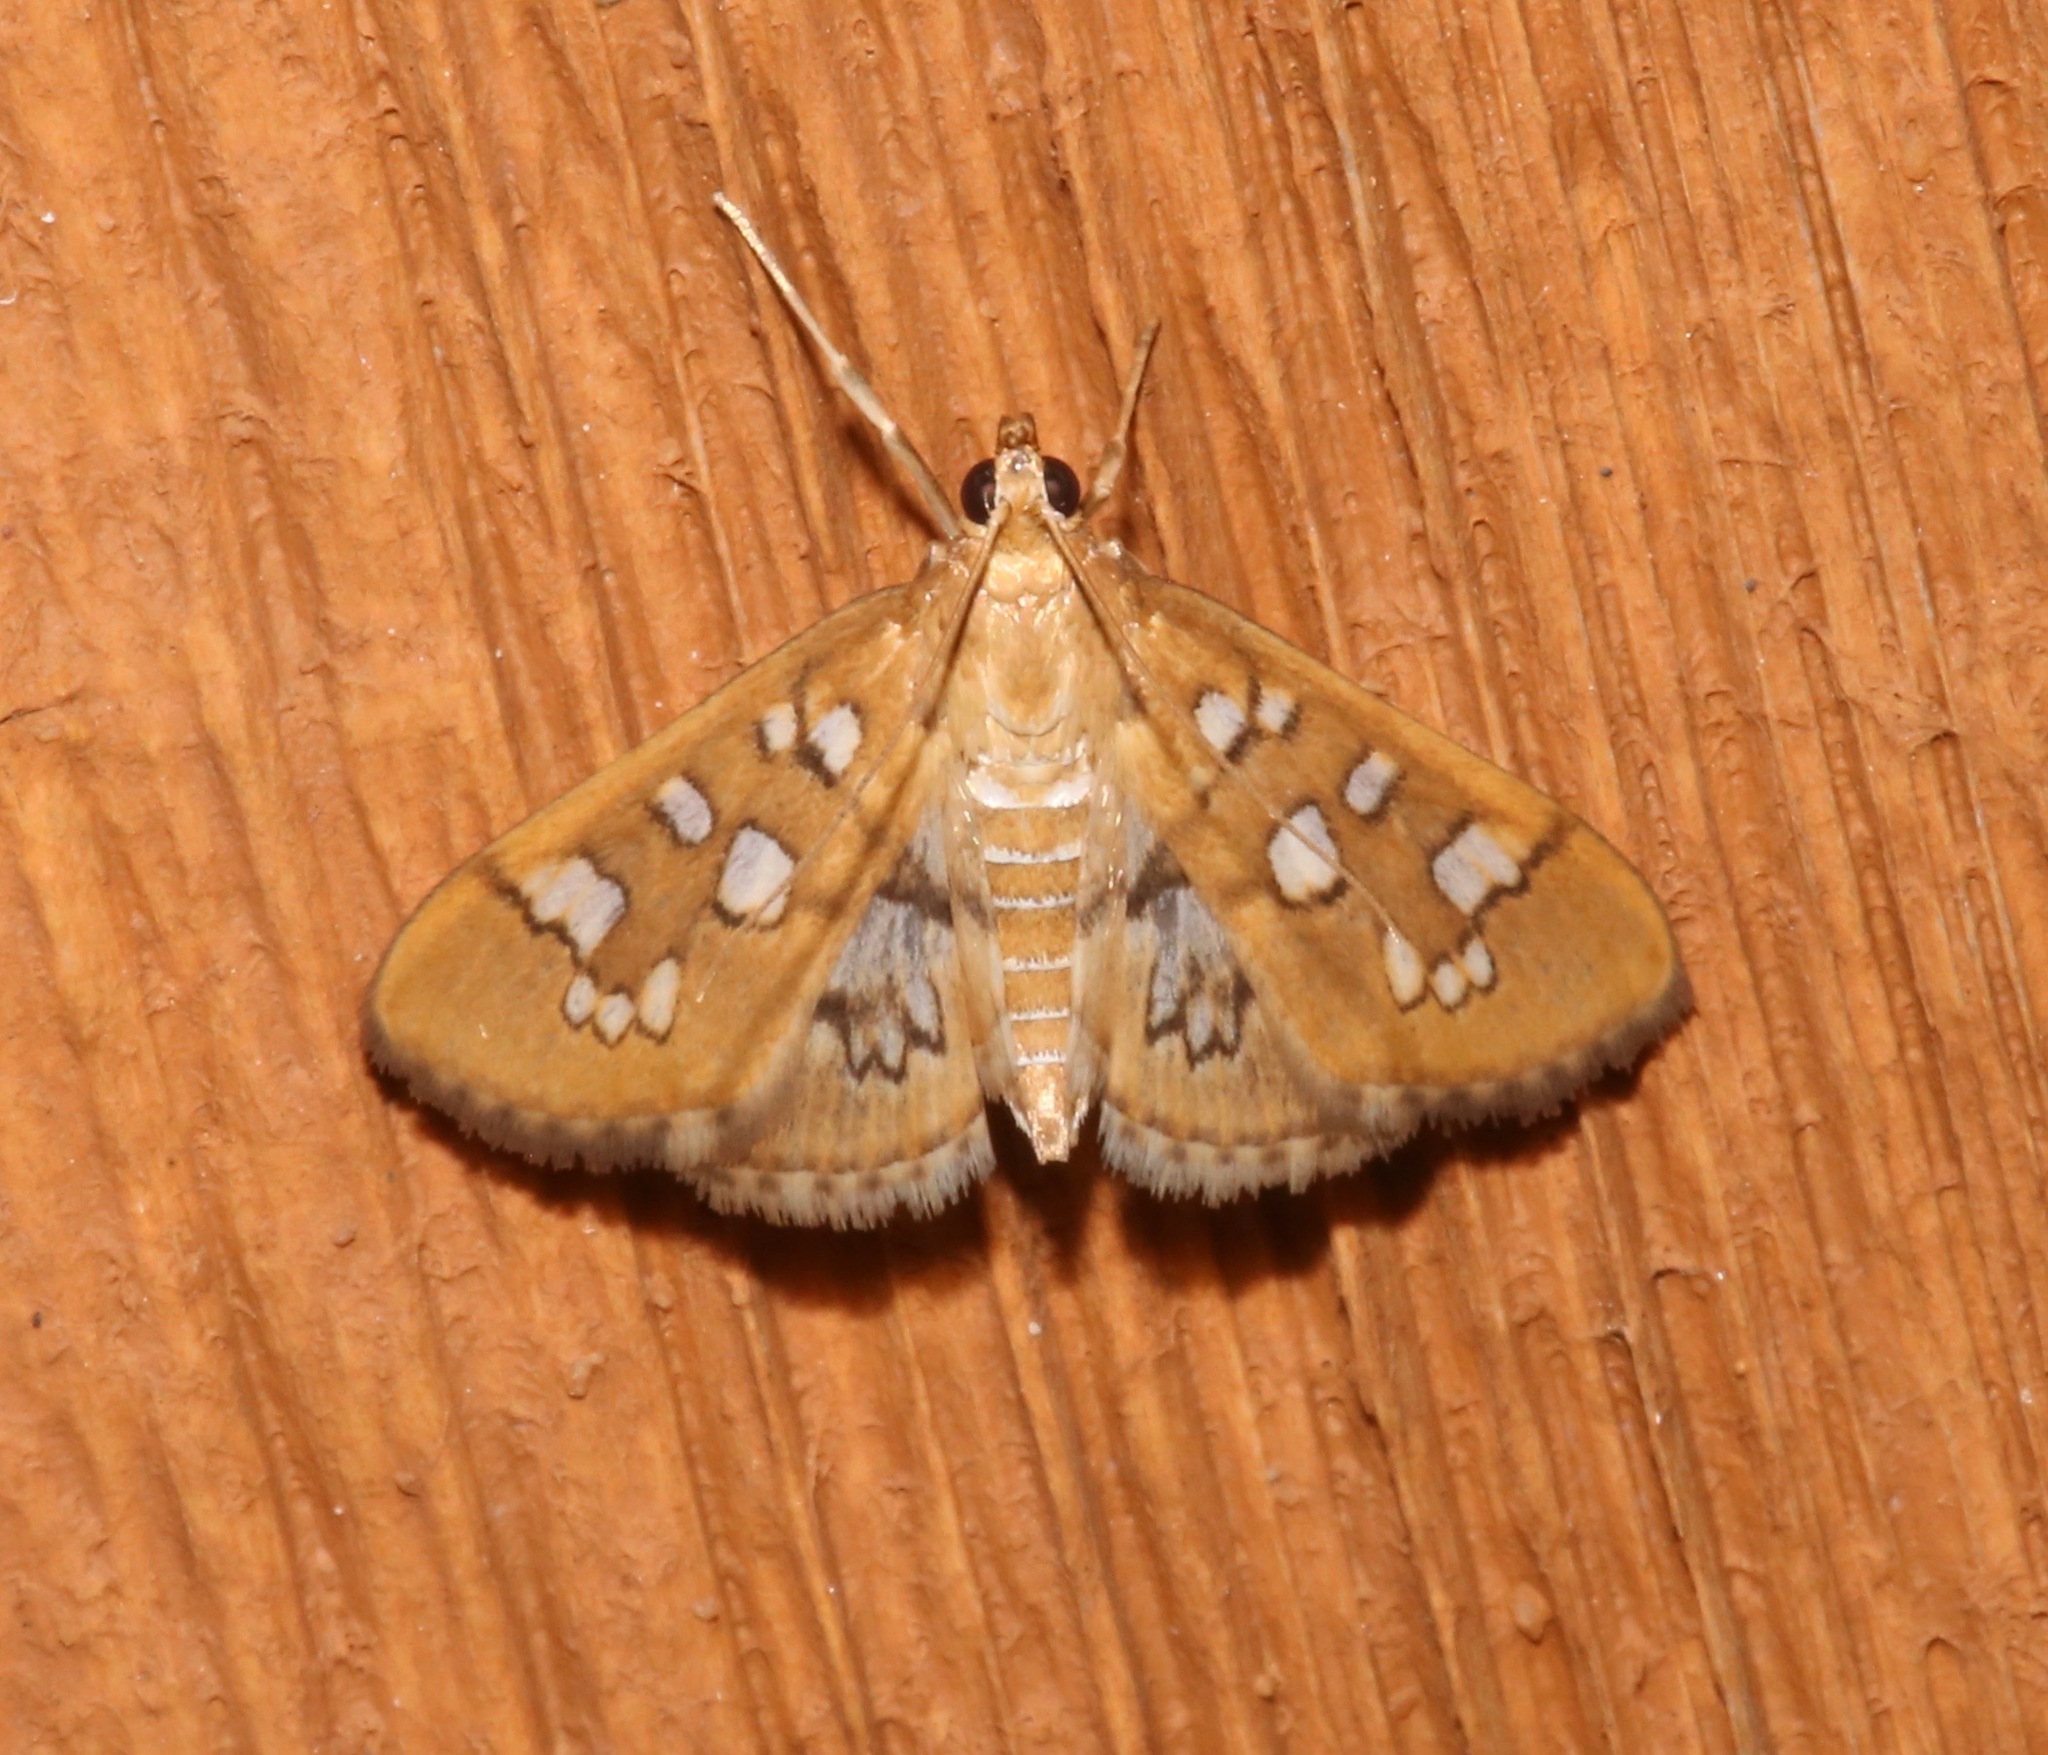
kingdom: Animalia
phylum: Arthropoda
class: Insecta
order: Lepidoptera
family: Crambidae
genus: Samea
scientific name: Samea baccatalis
